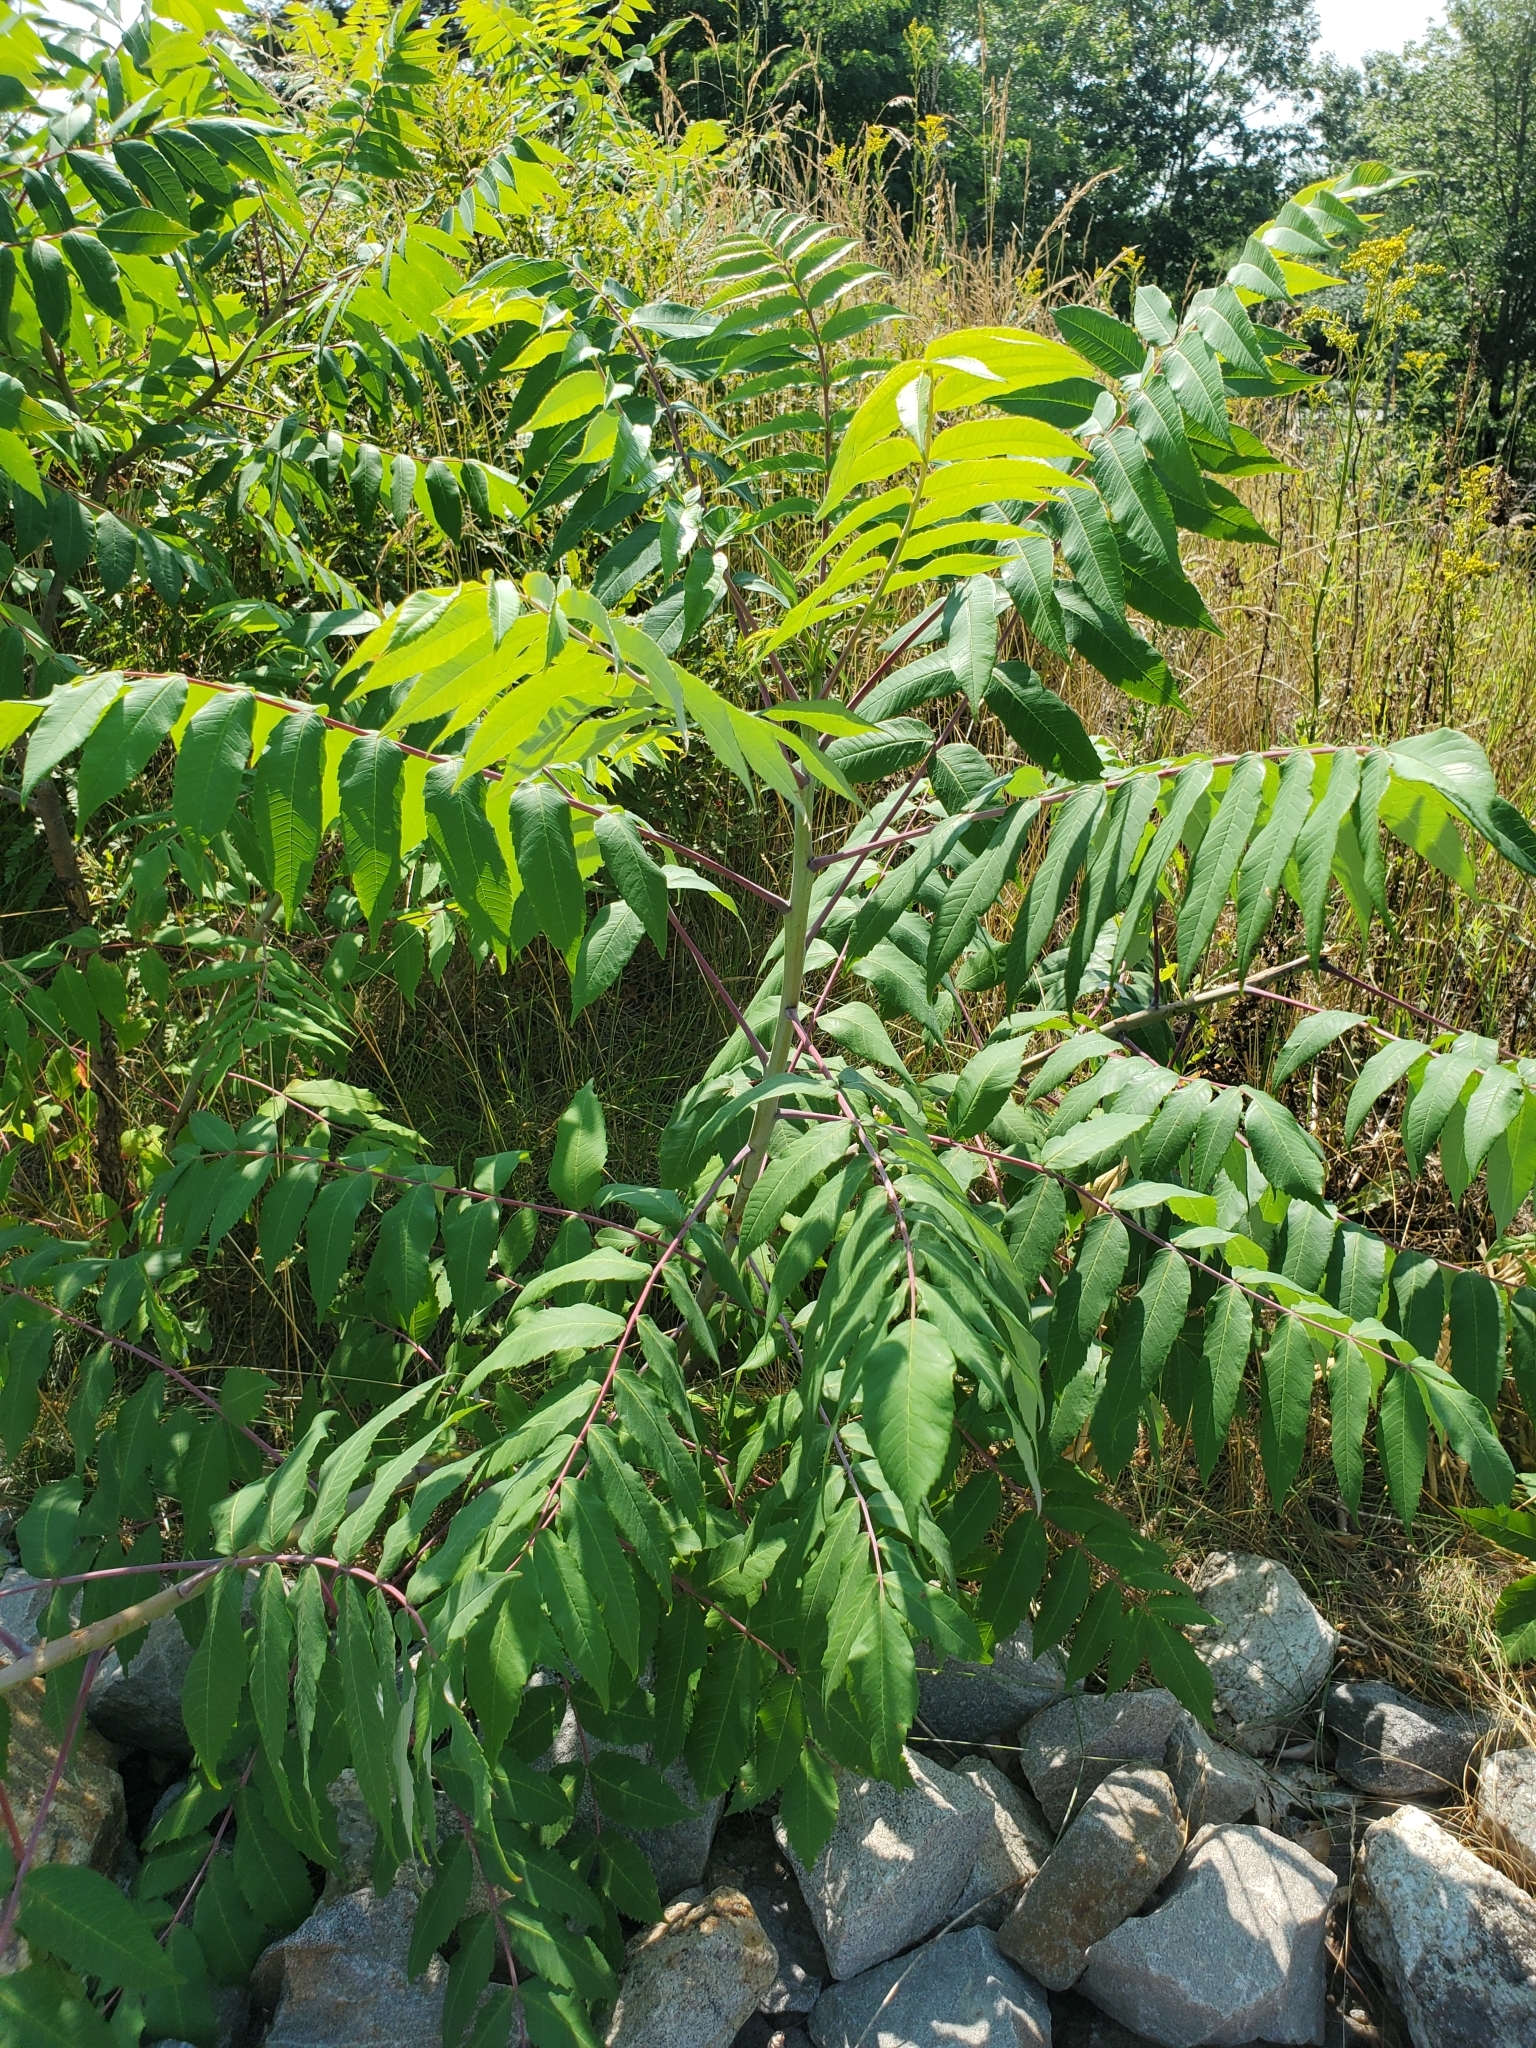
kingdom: Plantae
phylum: Tracheophyta
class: Magnoliopsida
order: Sapindales
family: Anacardiaceae
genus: Rhus
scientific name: Rhus glabra
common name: Scarlet sumac
